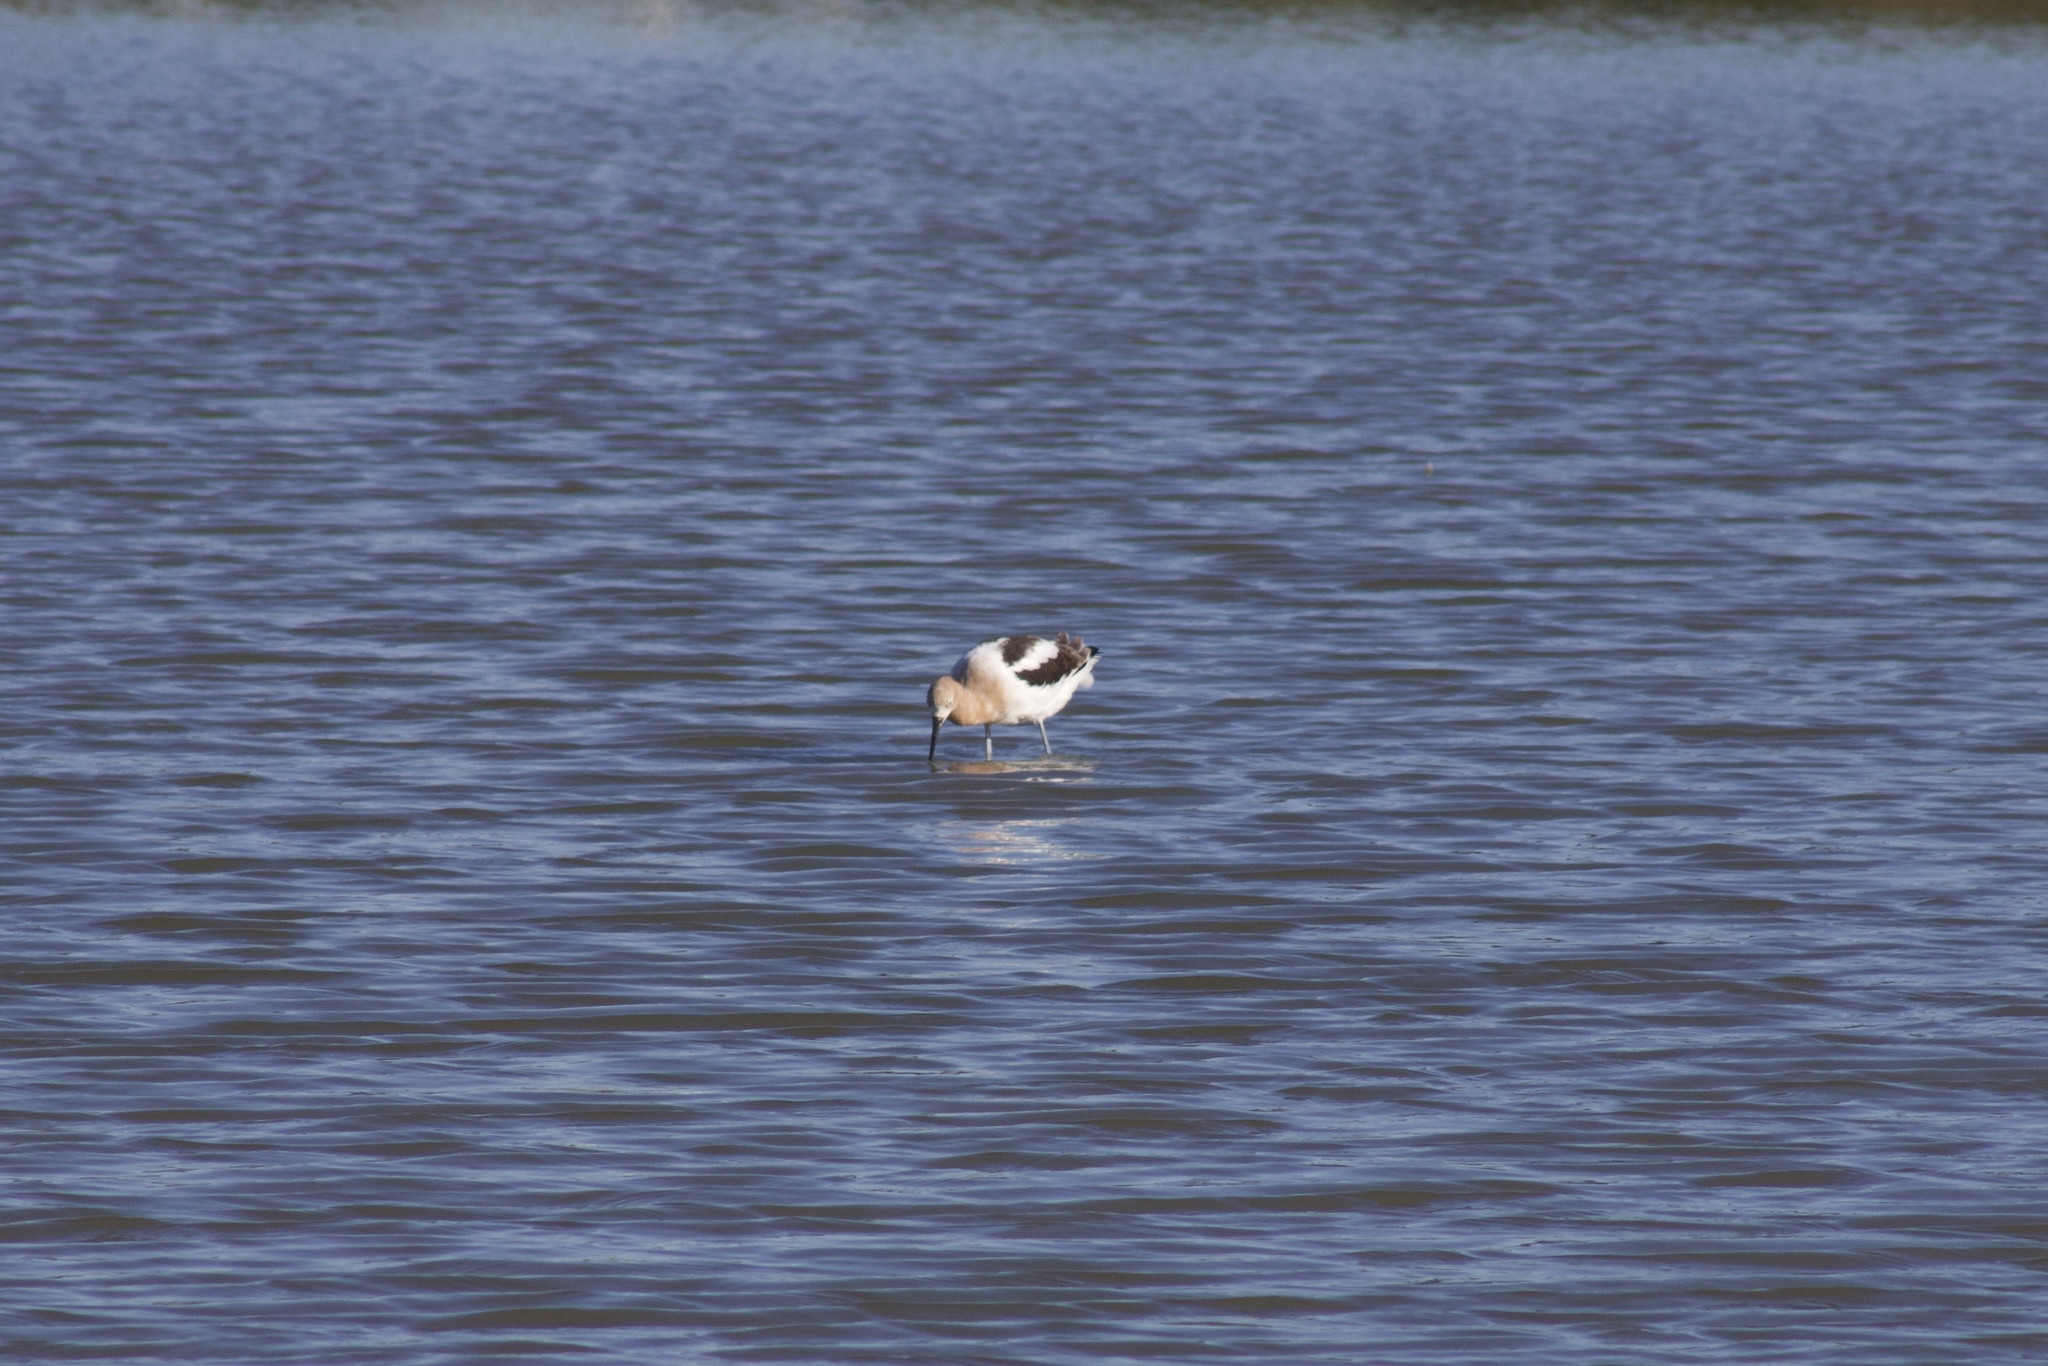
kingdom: Animalia
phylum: Chordata
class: Aves
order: Charadriiformes
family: Recurvirostridae
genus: Recurvirostra
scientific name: Recurvirostra americana
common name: American avocet
